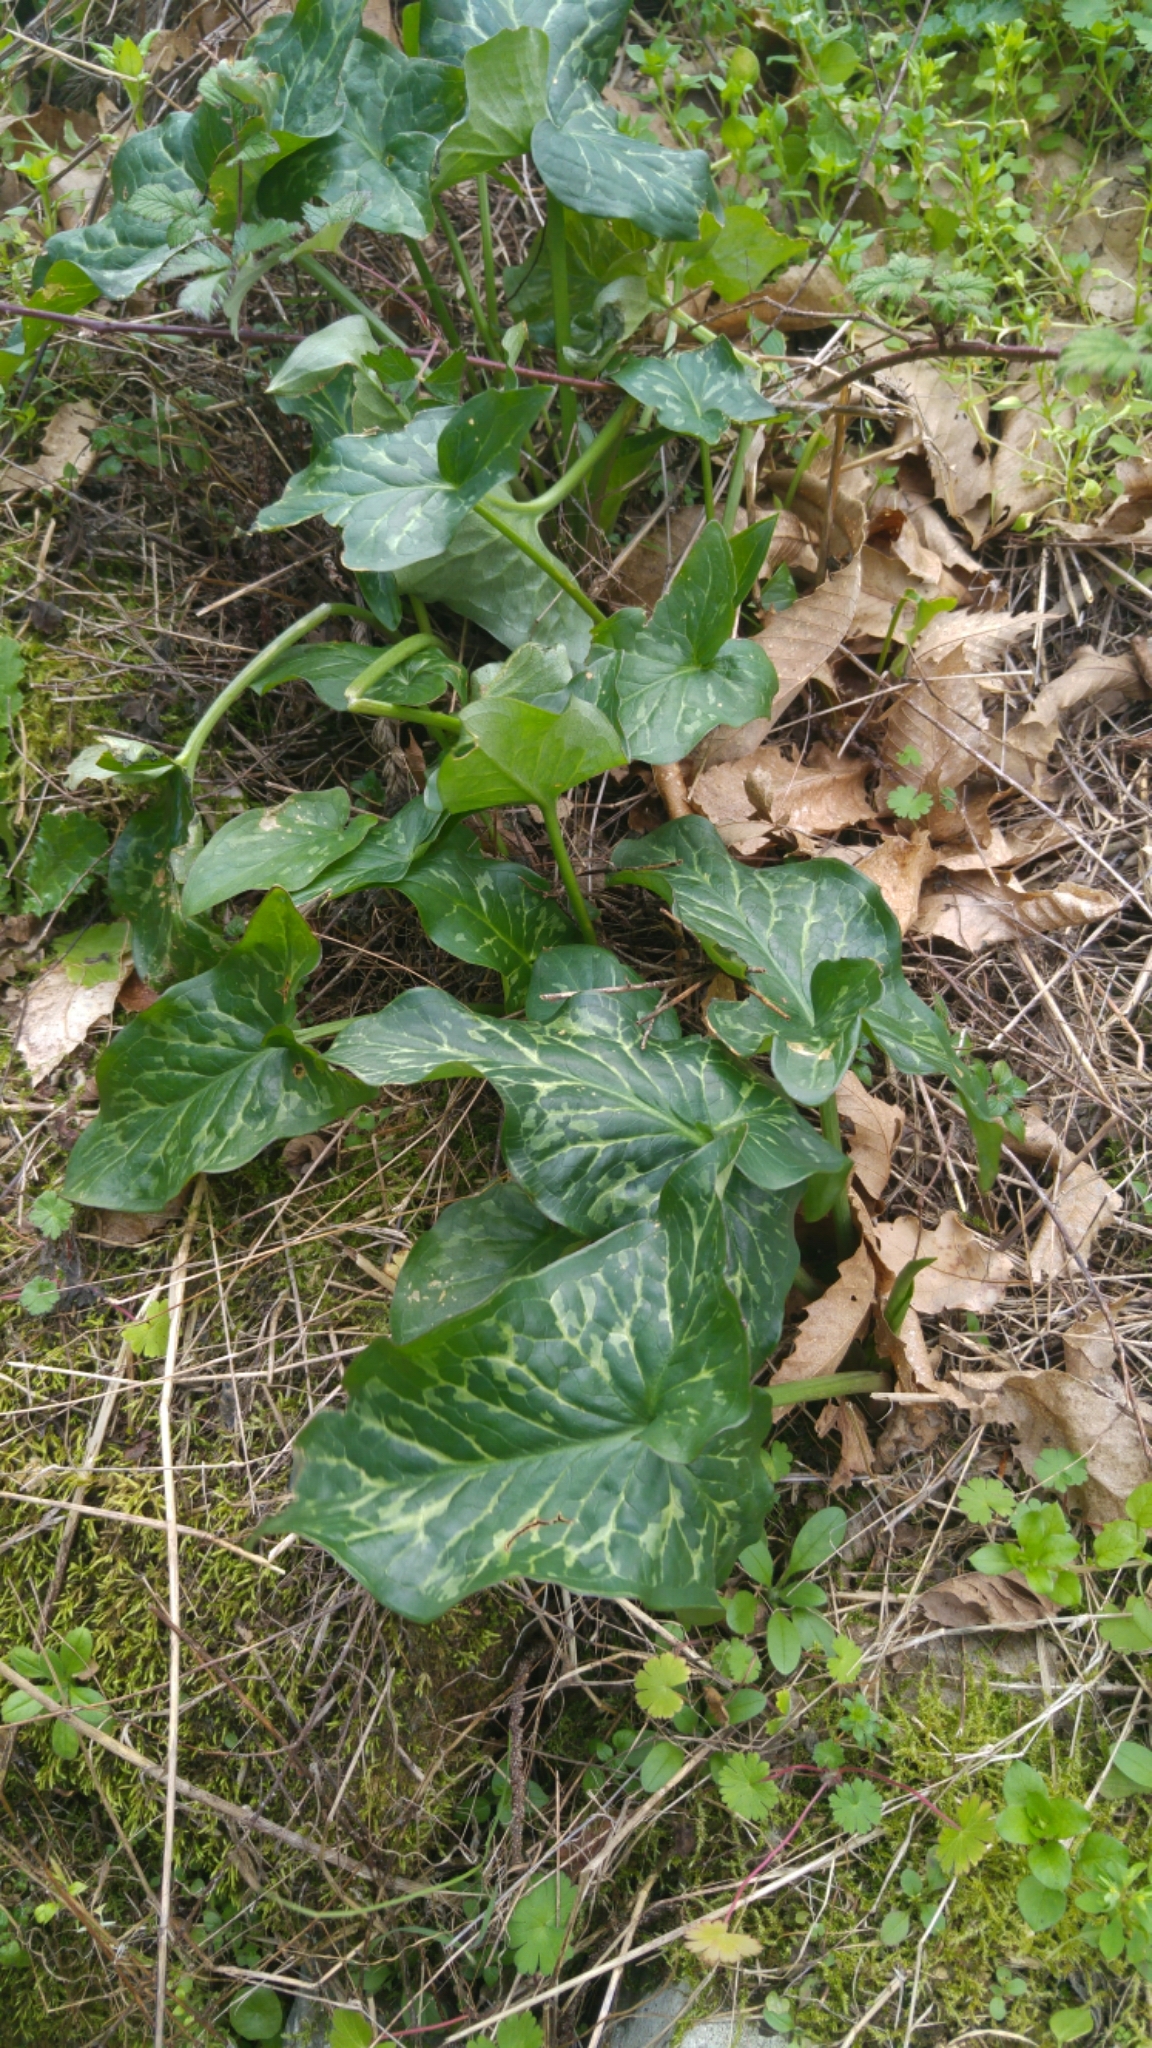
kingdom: Plantae
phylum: Tracheophyta
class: Liliopsida
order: Alismatales
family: Araceae
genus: Arum
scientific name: Arum italicum
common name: Italian lords-and-ladies
